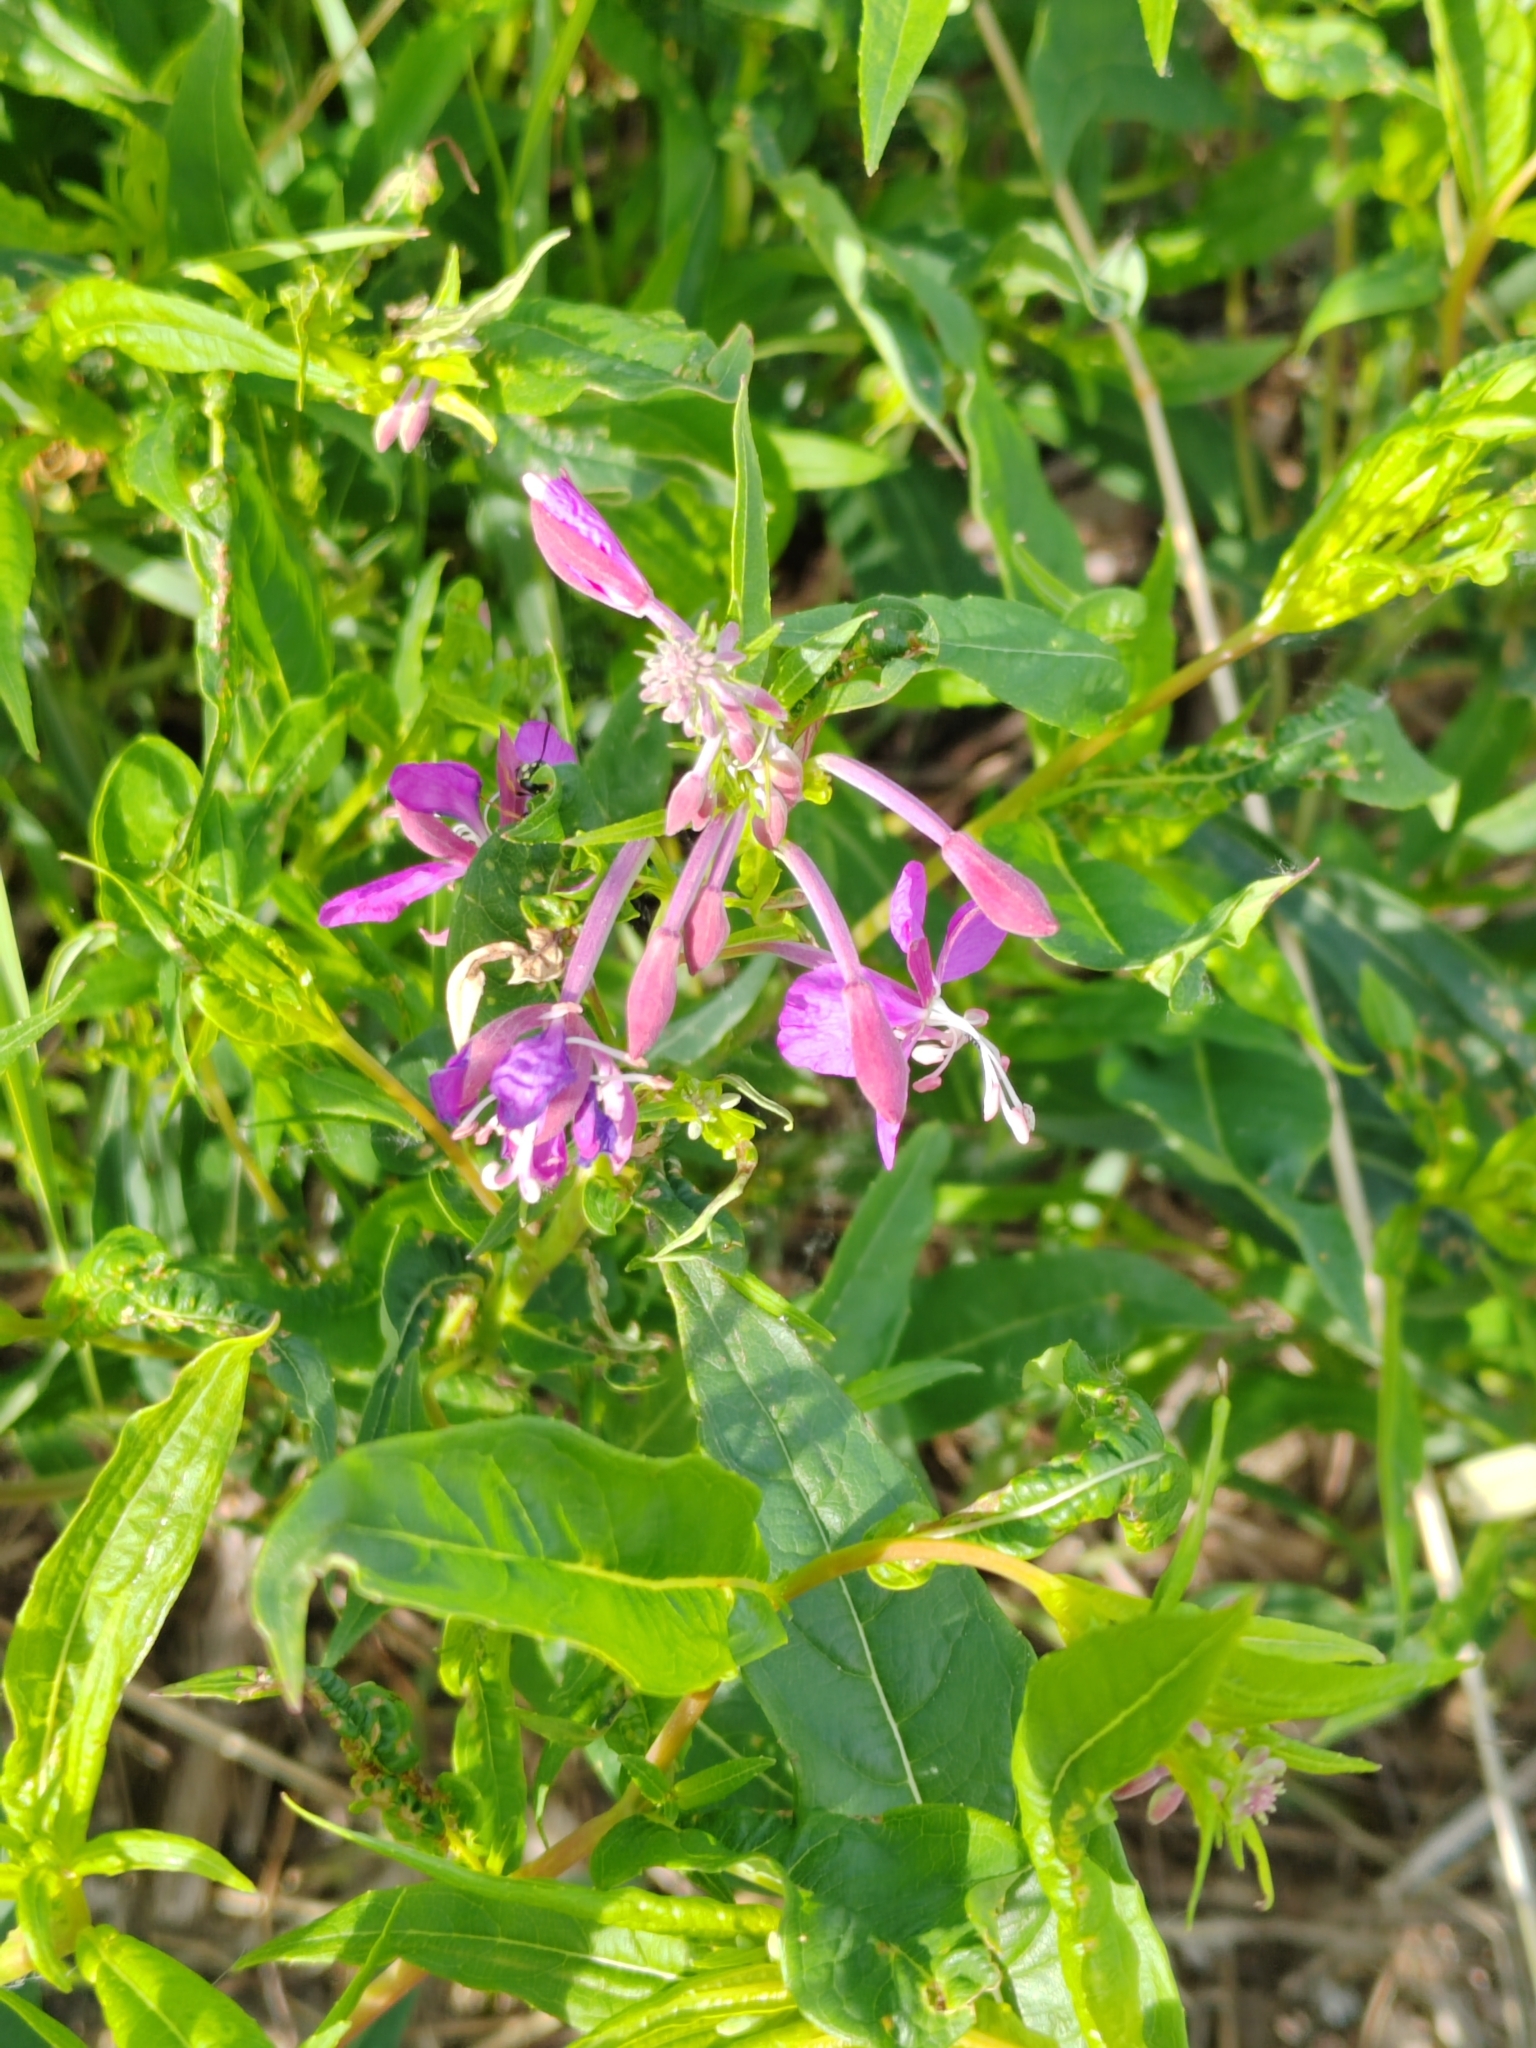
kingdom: Plantae
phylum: Tracheophyta
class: Magnoliopsida
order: Myrtales
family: Onagraceae
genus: Chamaenerion
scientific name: Chamaenerion angustifolium
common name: Fireweed
